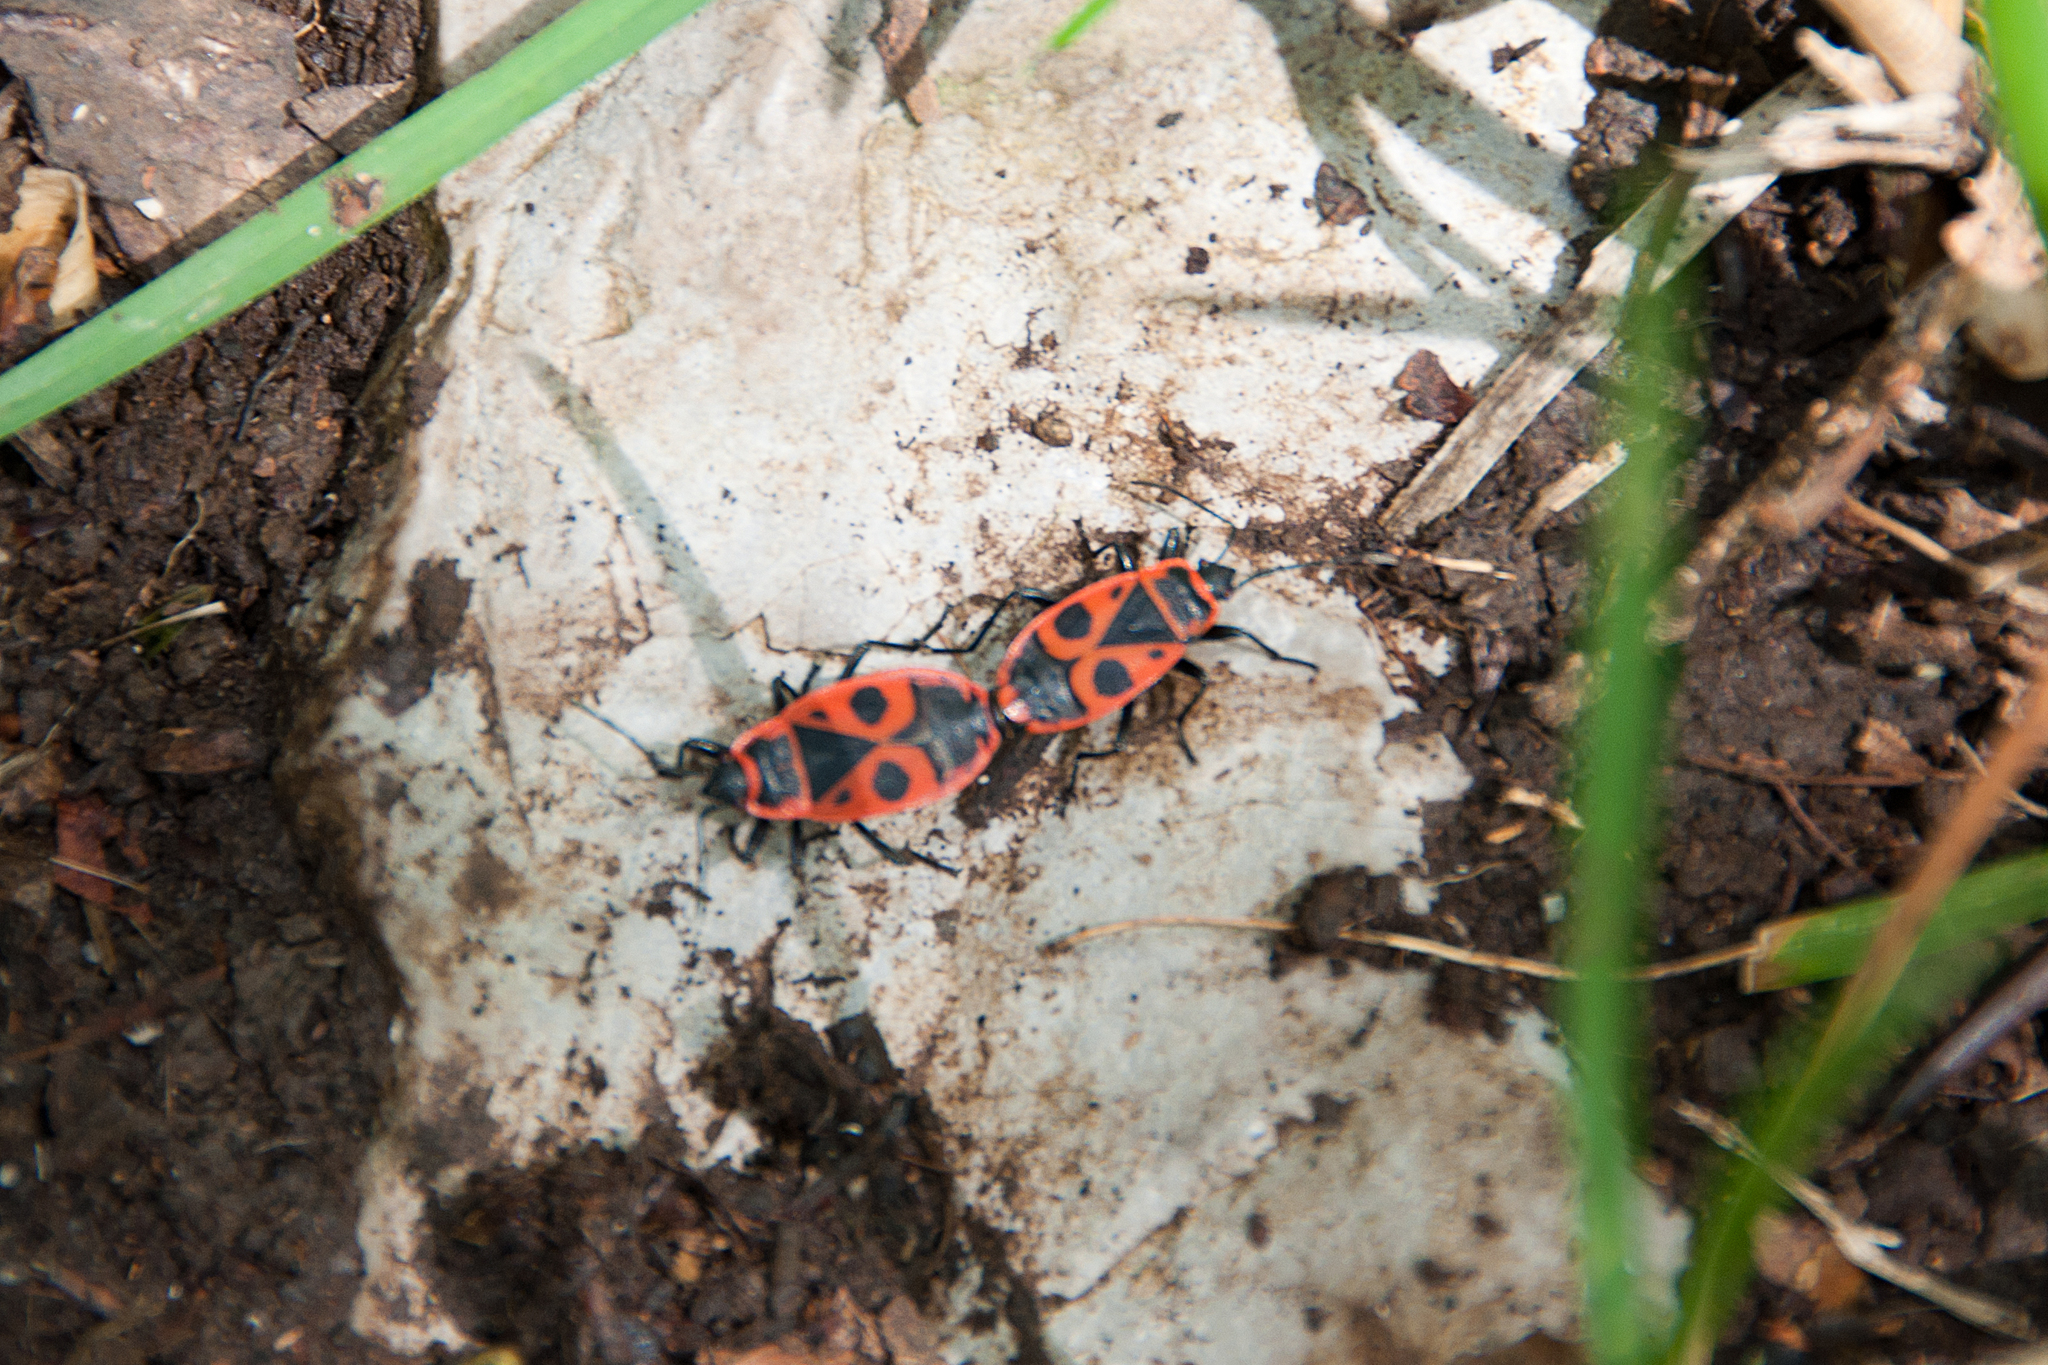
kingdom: Animalia
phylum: Arthropoda
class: Insecta
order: Hemiptera
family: Pyrrhocoridae
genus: Pyrrhocoris
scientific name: Pyrrhocoris apterus
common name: Firebug
